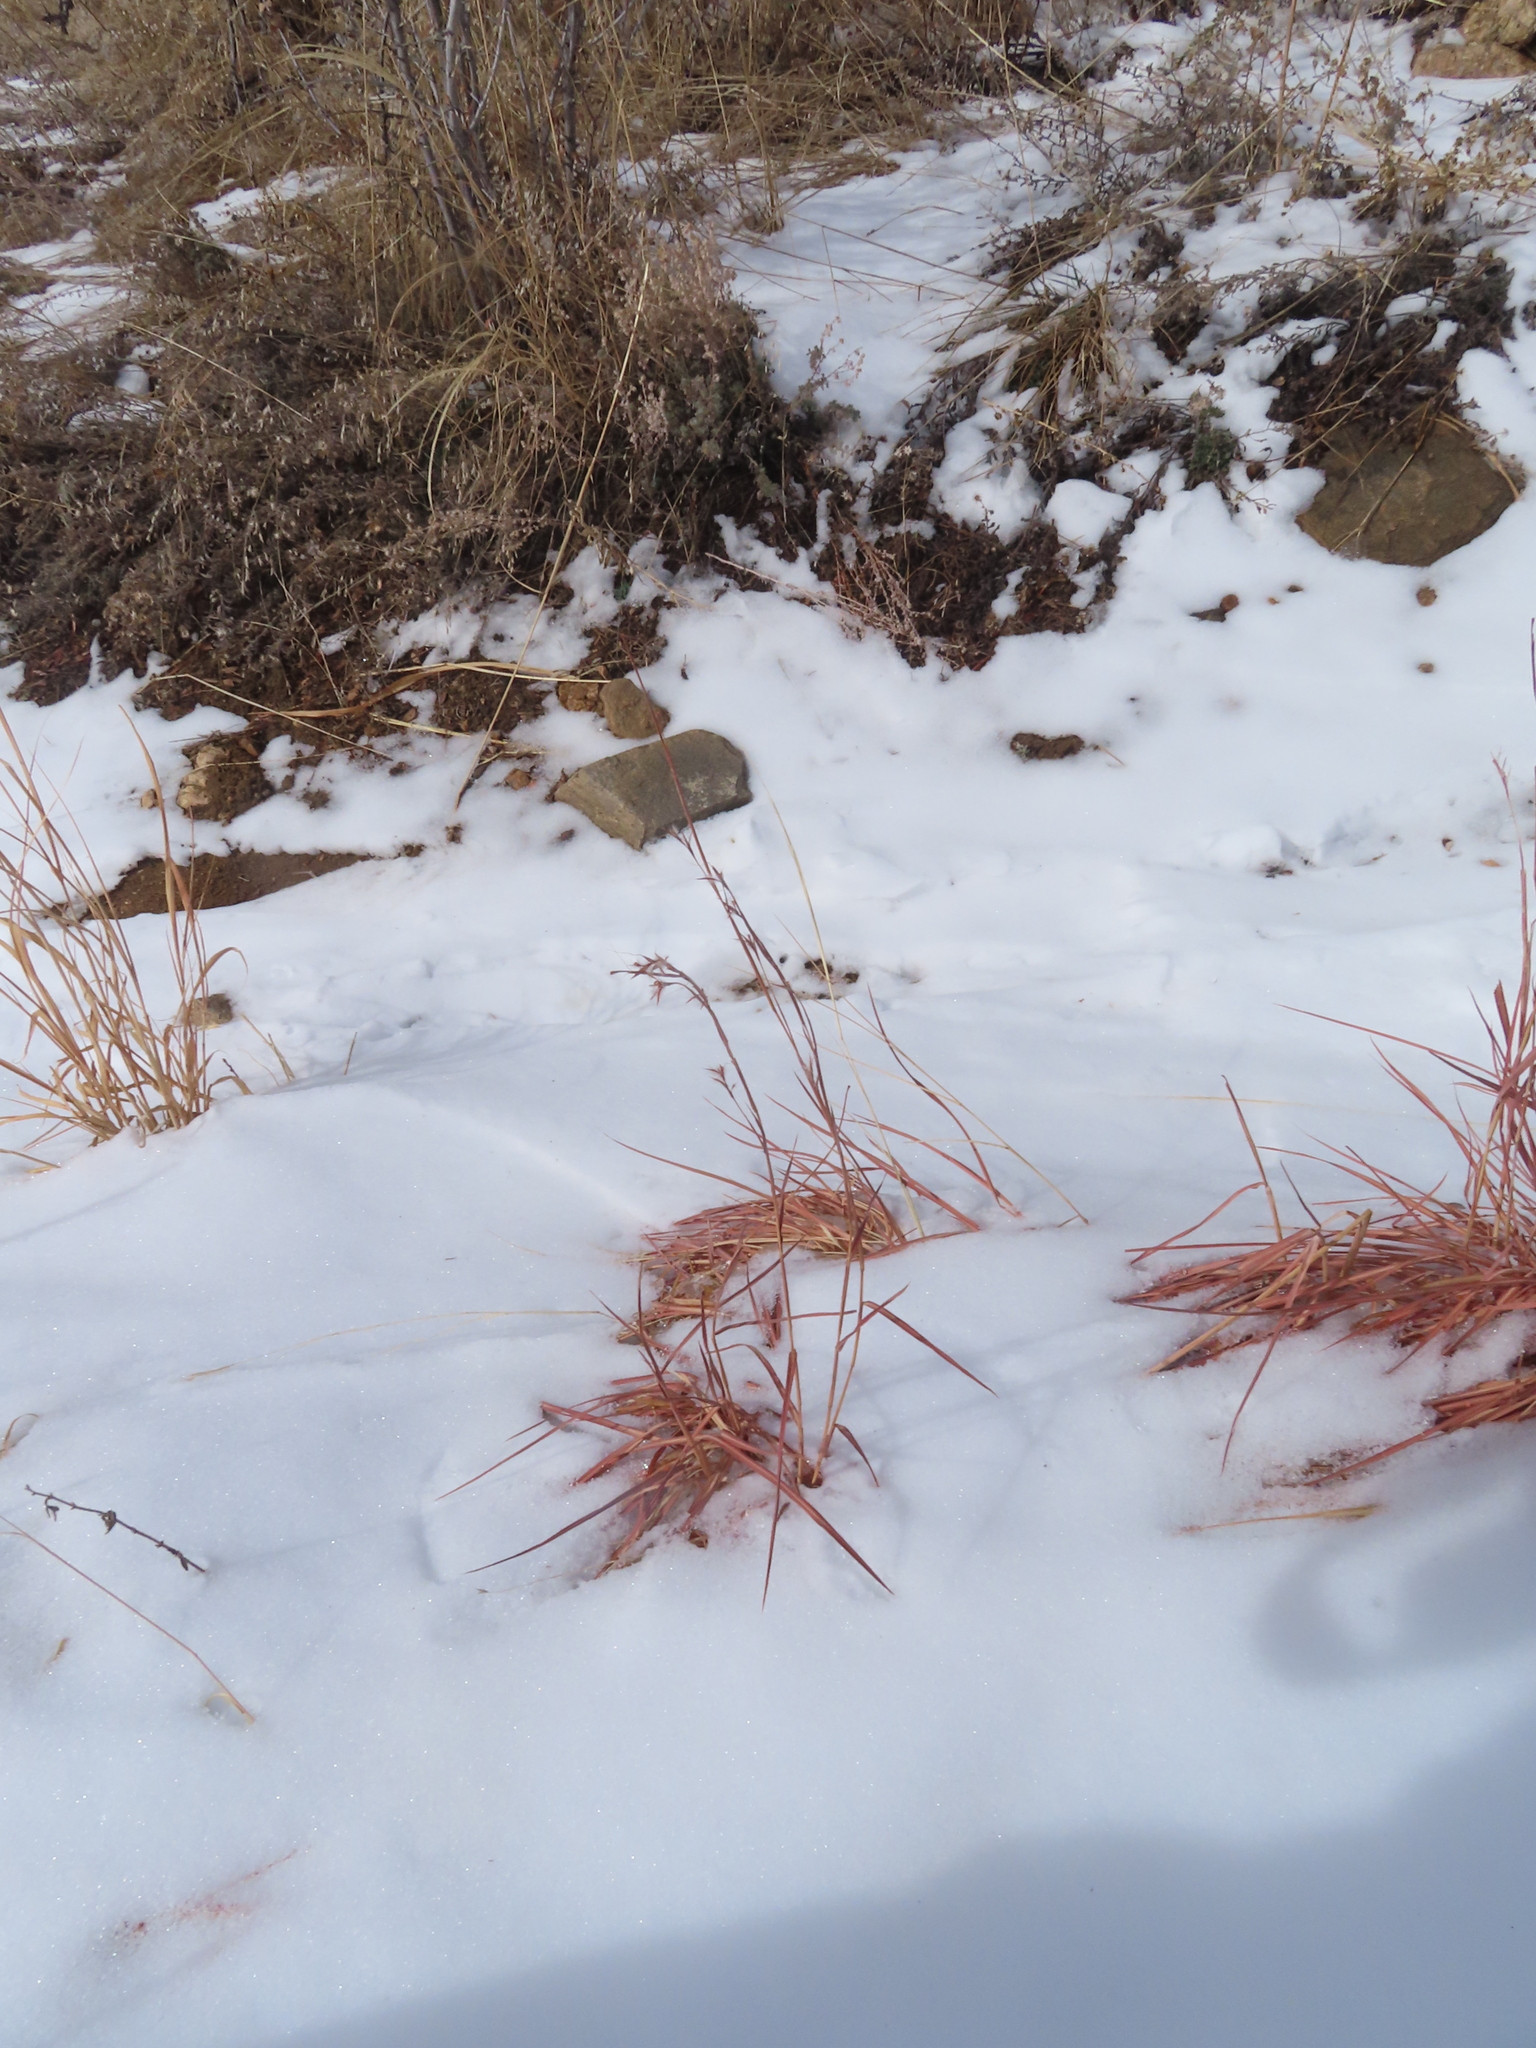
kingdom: Plantae
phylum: Tracheophyta
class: Liliopsida
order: Poales
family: Poaceae
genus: Schizachyrium
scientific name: Schizachyrium scoparium
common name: Little bluestem
